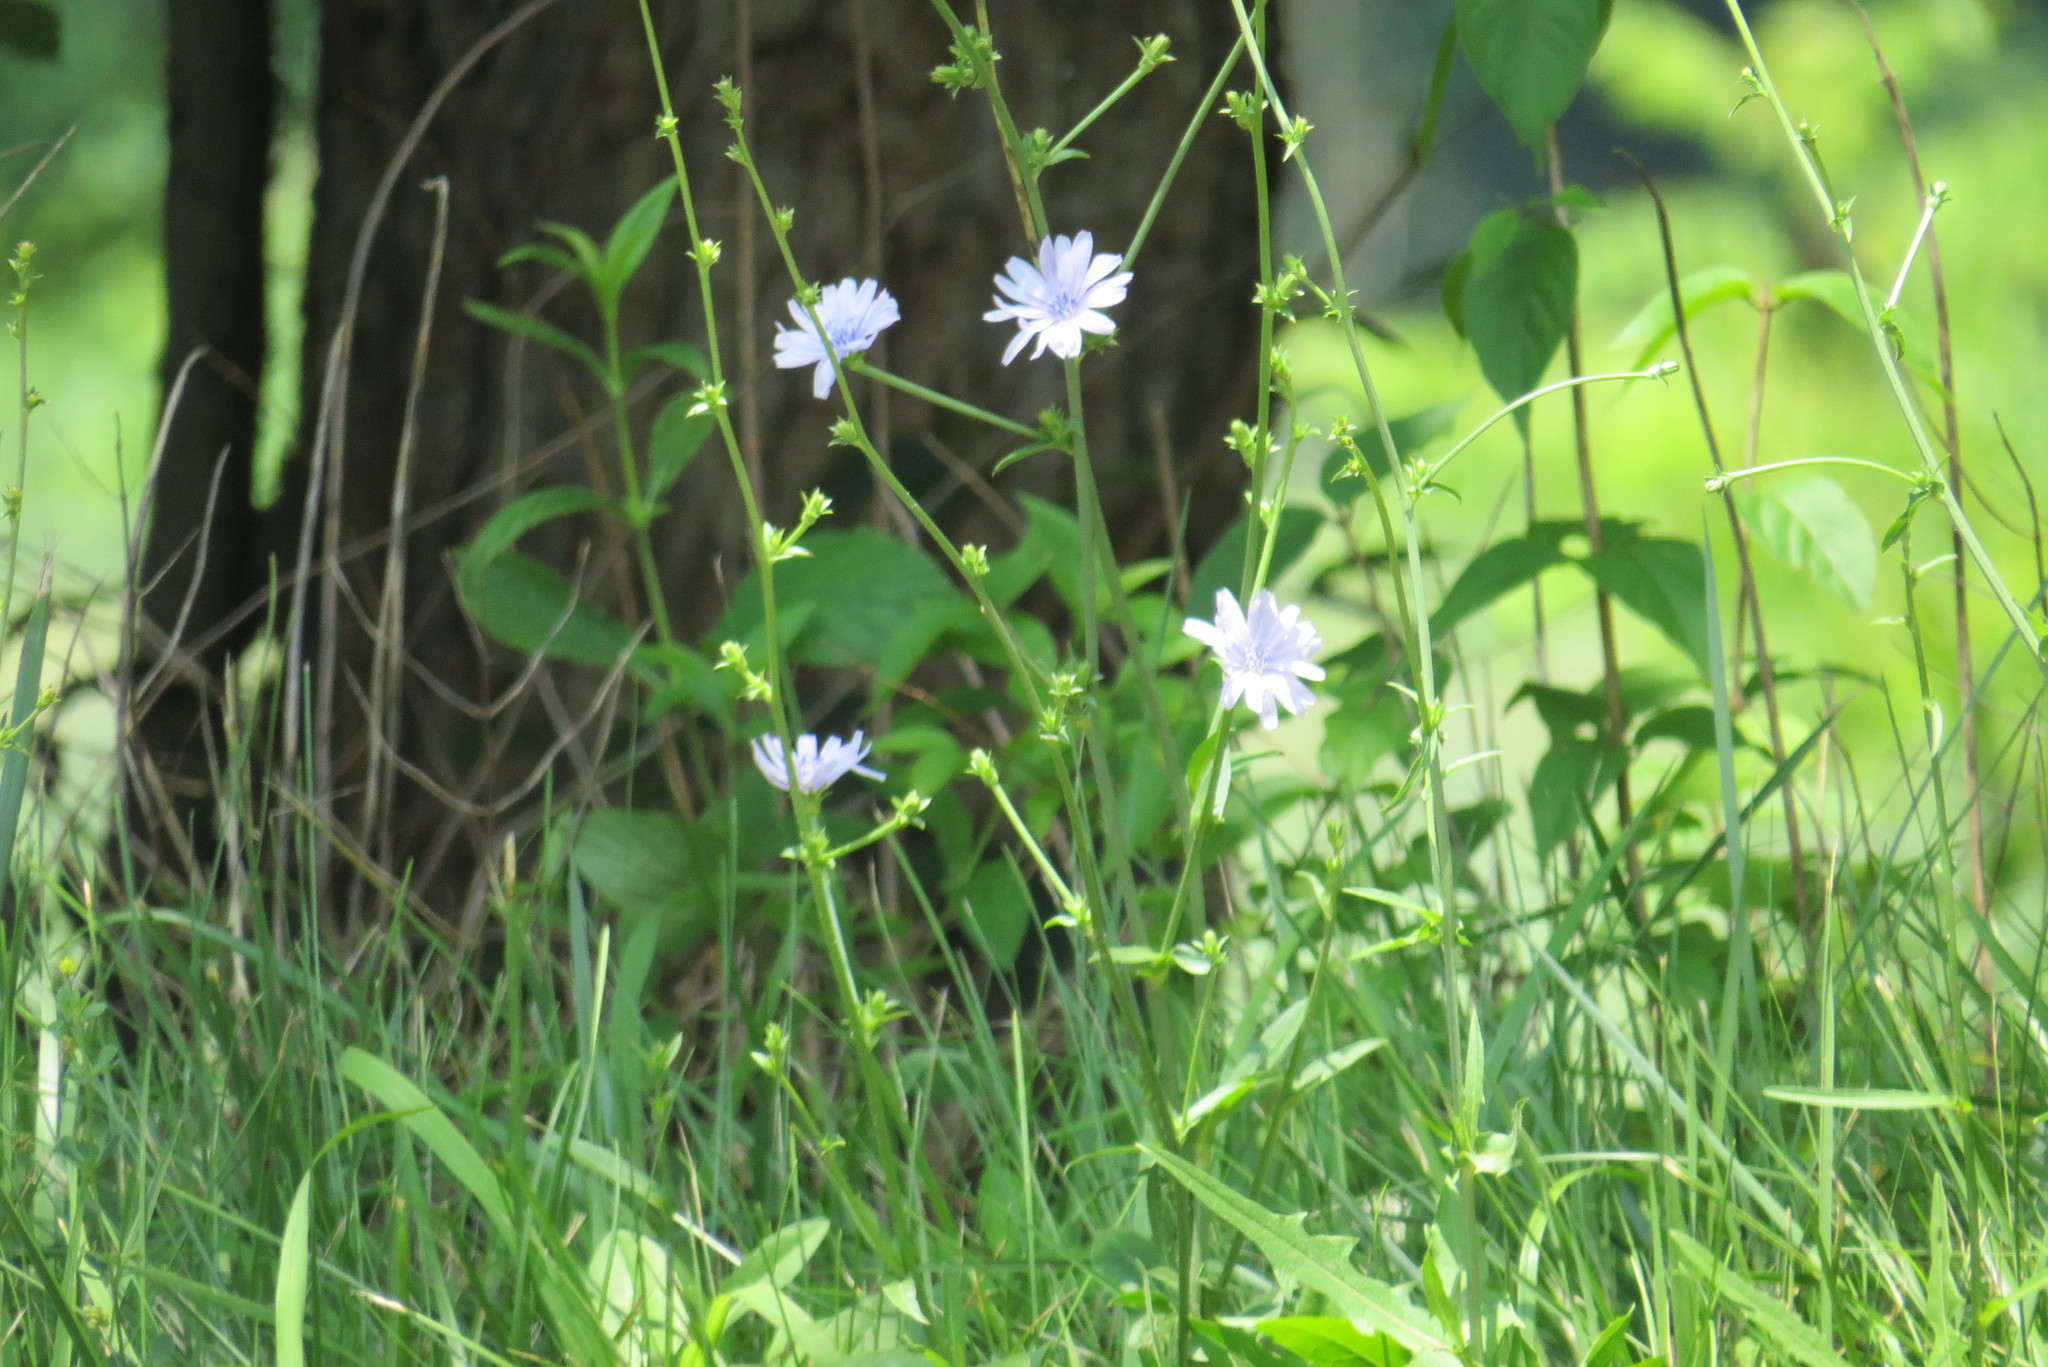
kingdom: Plantae
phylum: Tracheophyta
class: Magnoliopsida
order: Asterales
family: Asteraceae
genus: Cichorium
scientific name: Cichorium intybus
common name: Chicory
